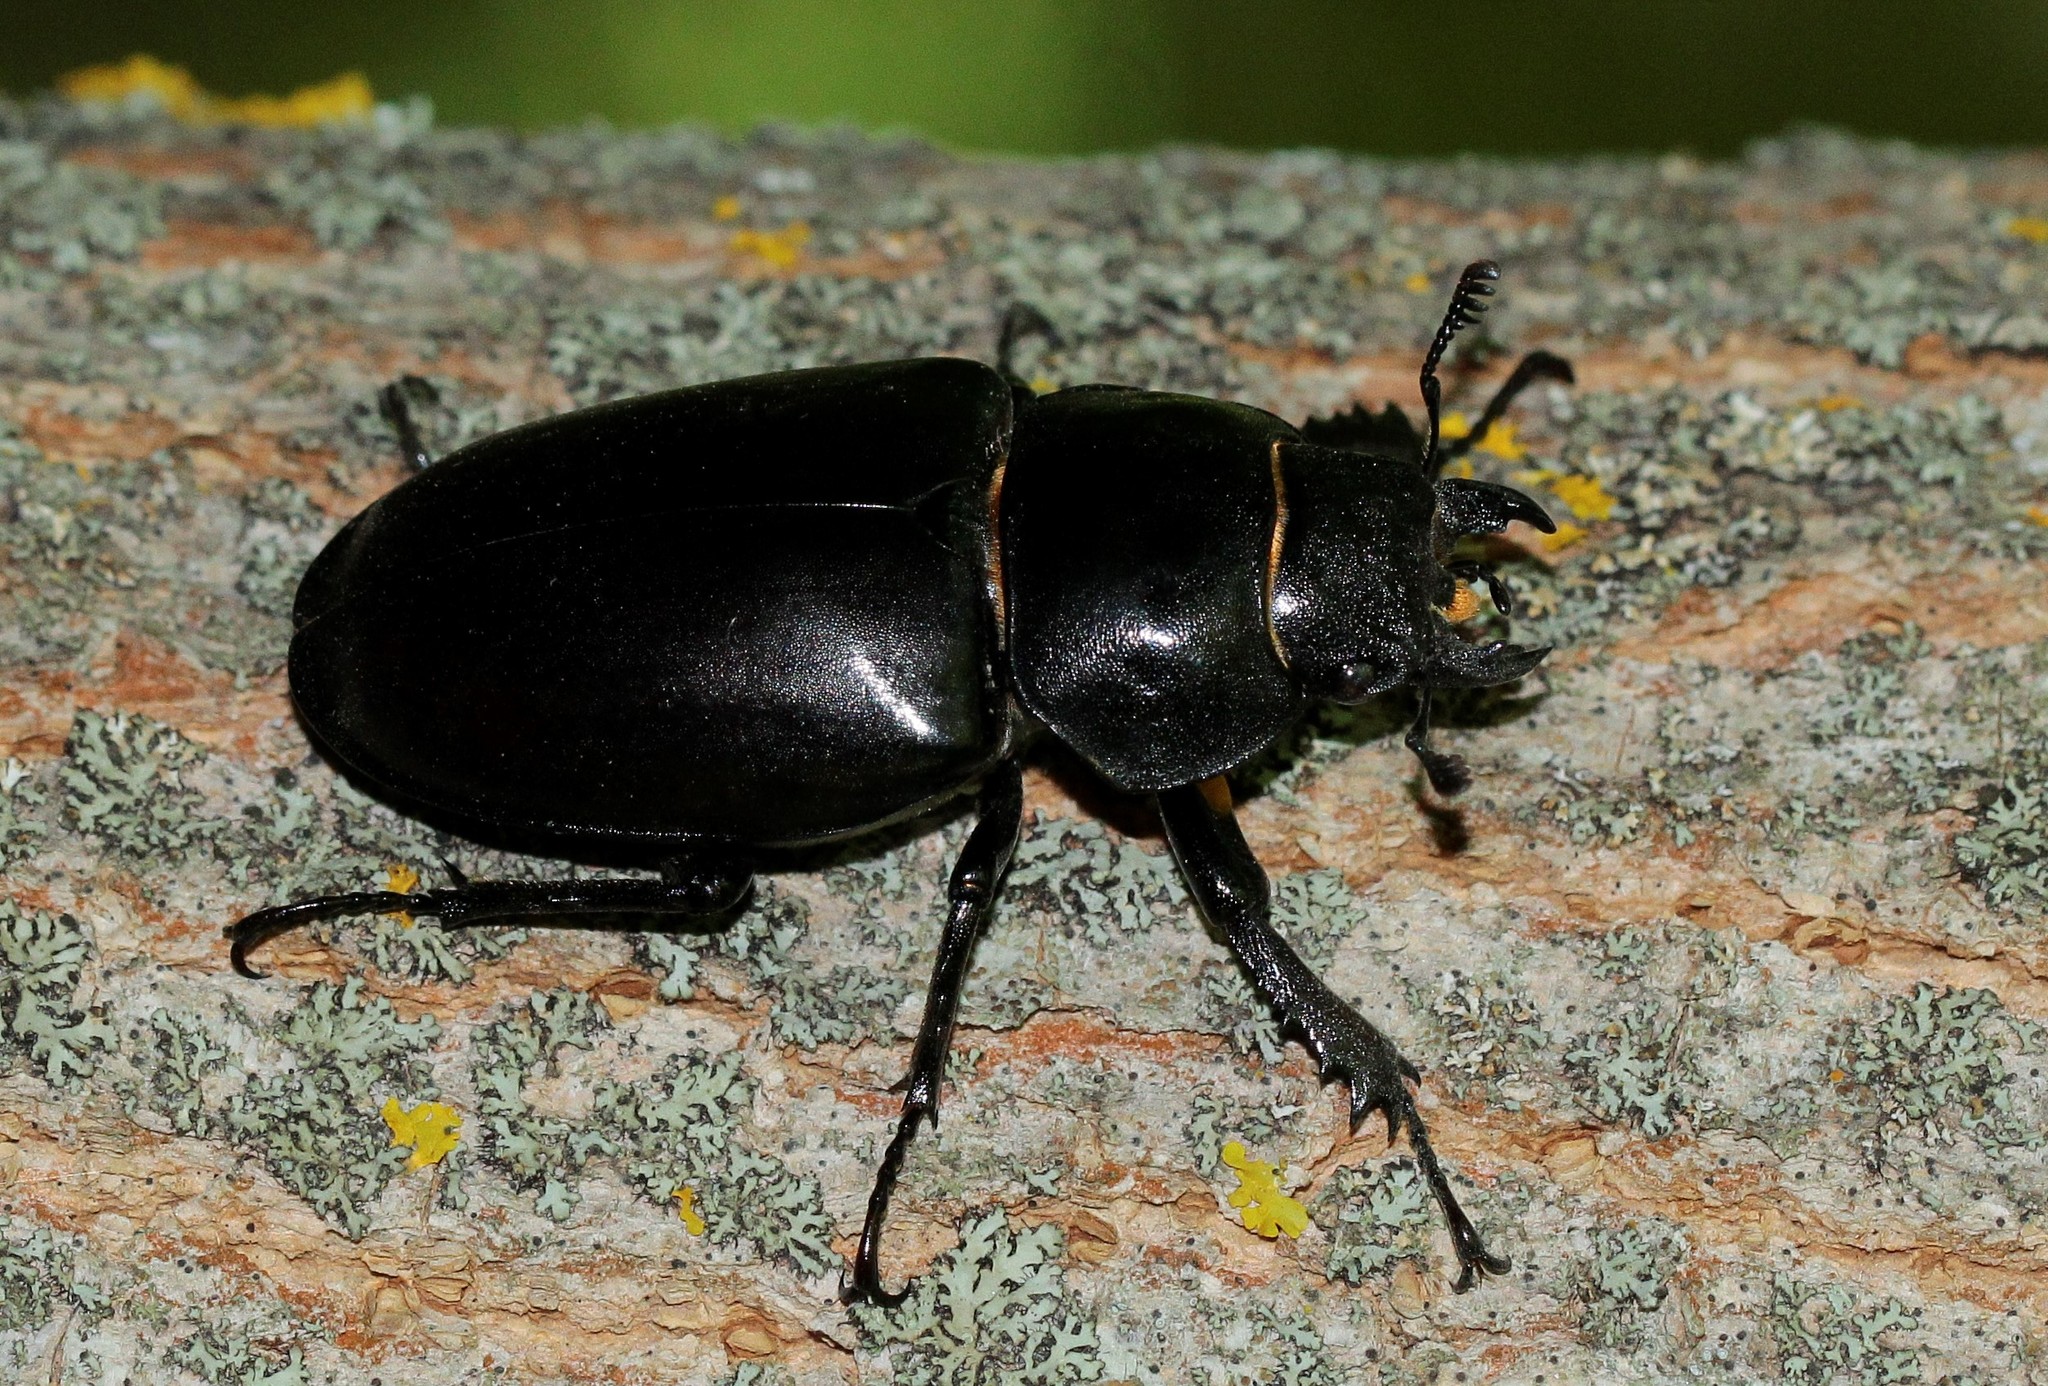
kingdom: Animalia
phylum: Arthropoda
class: Insecta
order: Coleoptera
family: Lucanidae
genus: Lucanus
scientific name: Lucanus cervus
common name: Stag beetle
